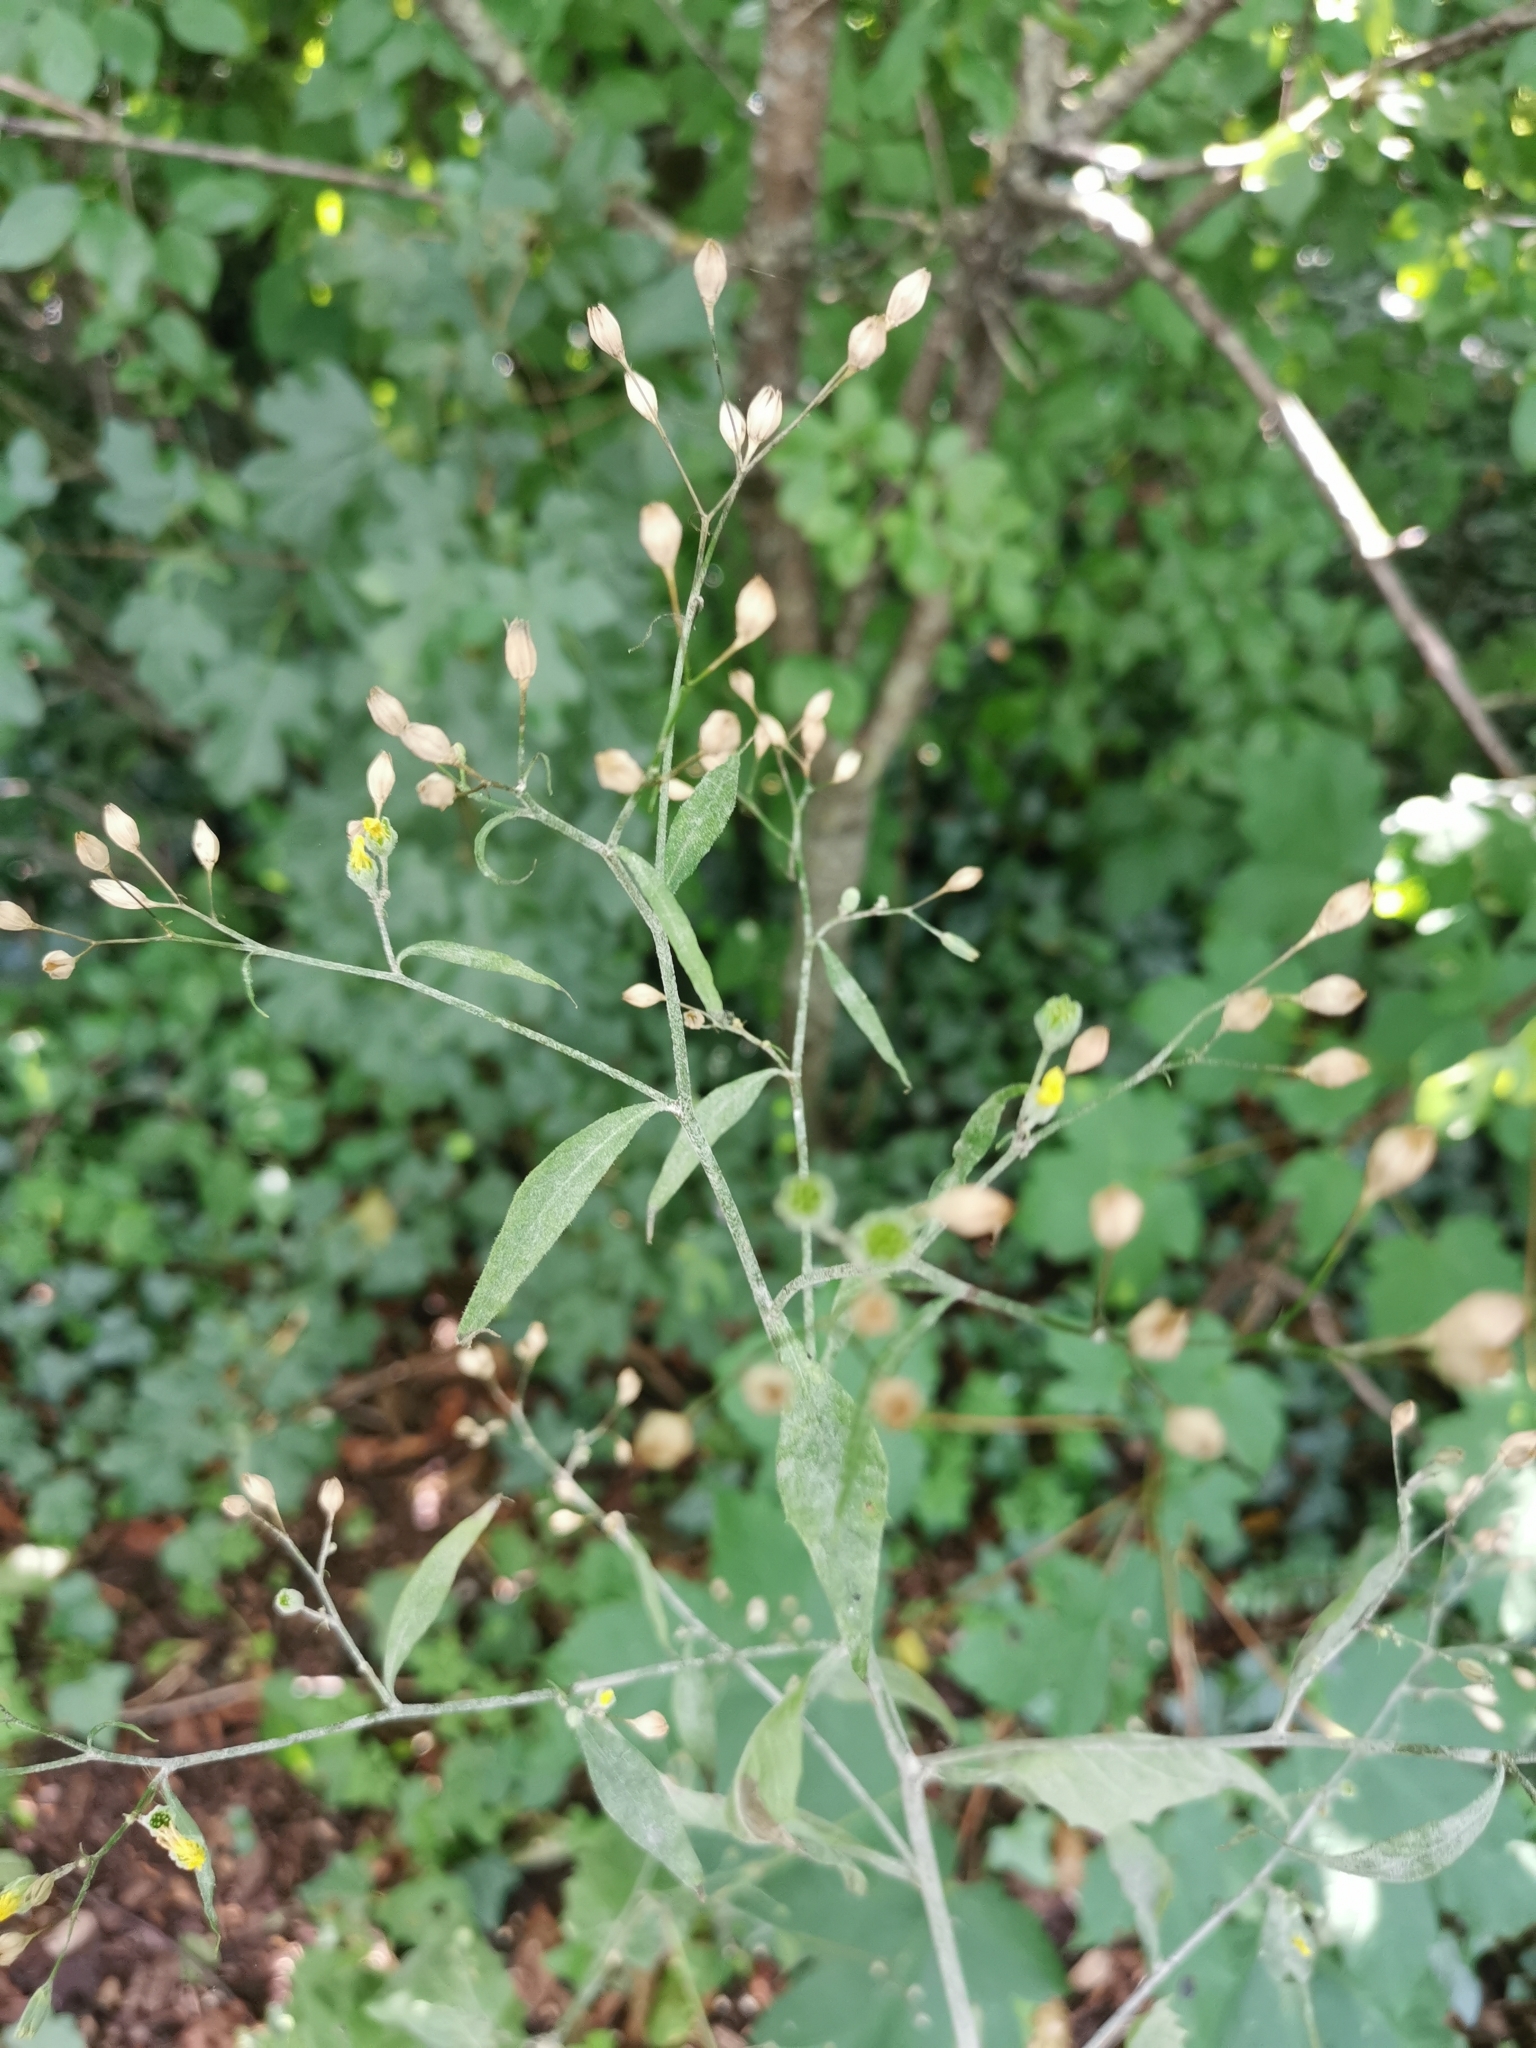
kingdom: Plantae
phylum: Tracheophyta
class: Magnoliopsida
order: Asterales
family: Asteraceae
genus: Lapsana
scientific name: Lapsana communis
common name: Nipplewort
